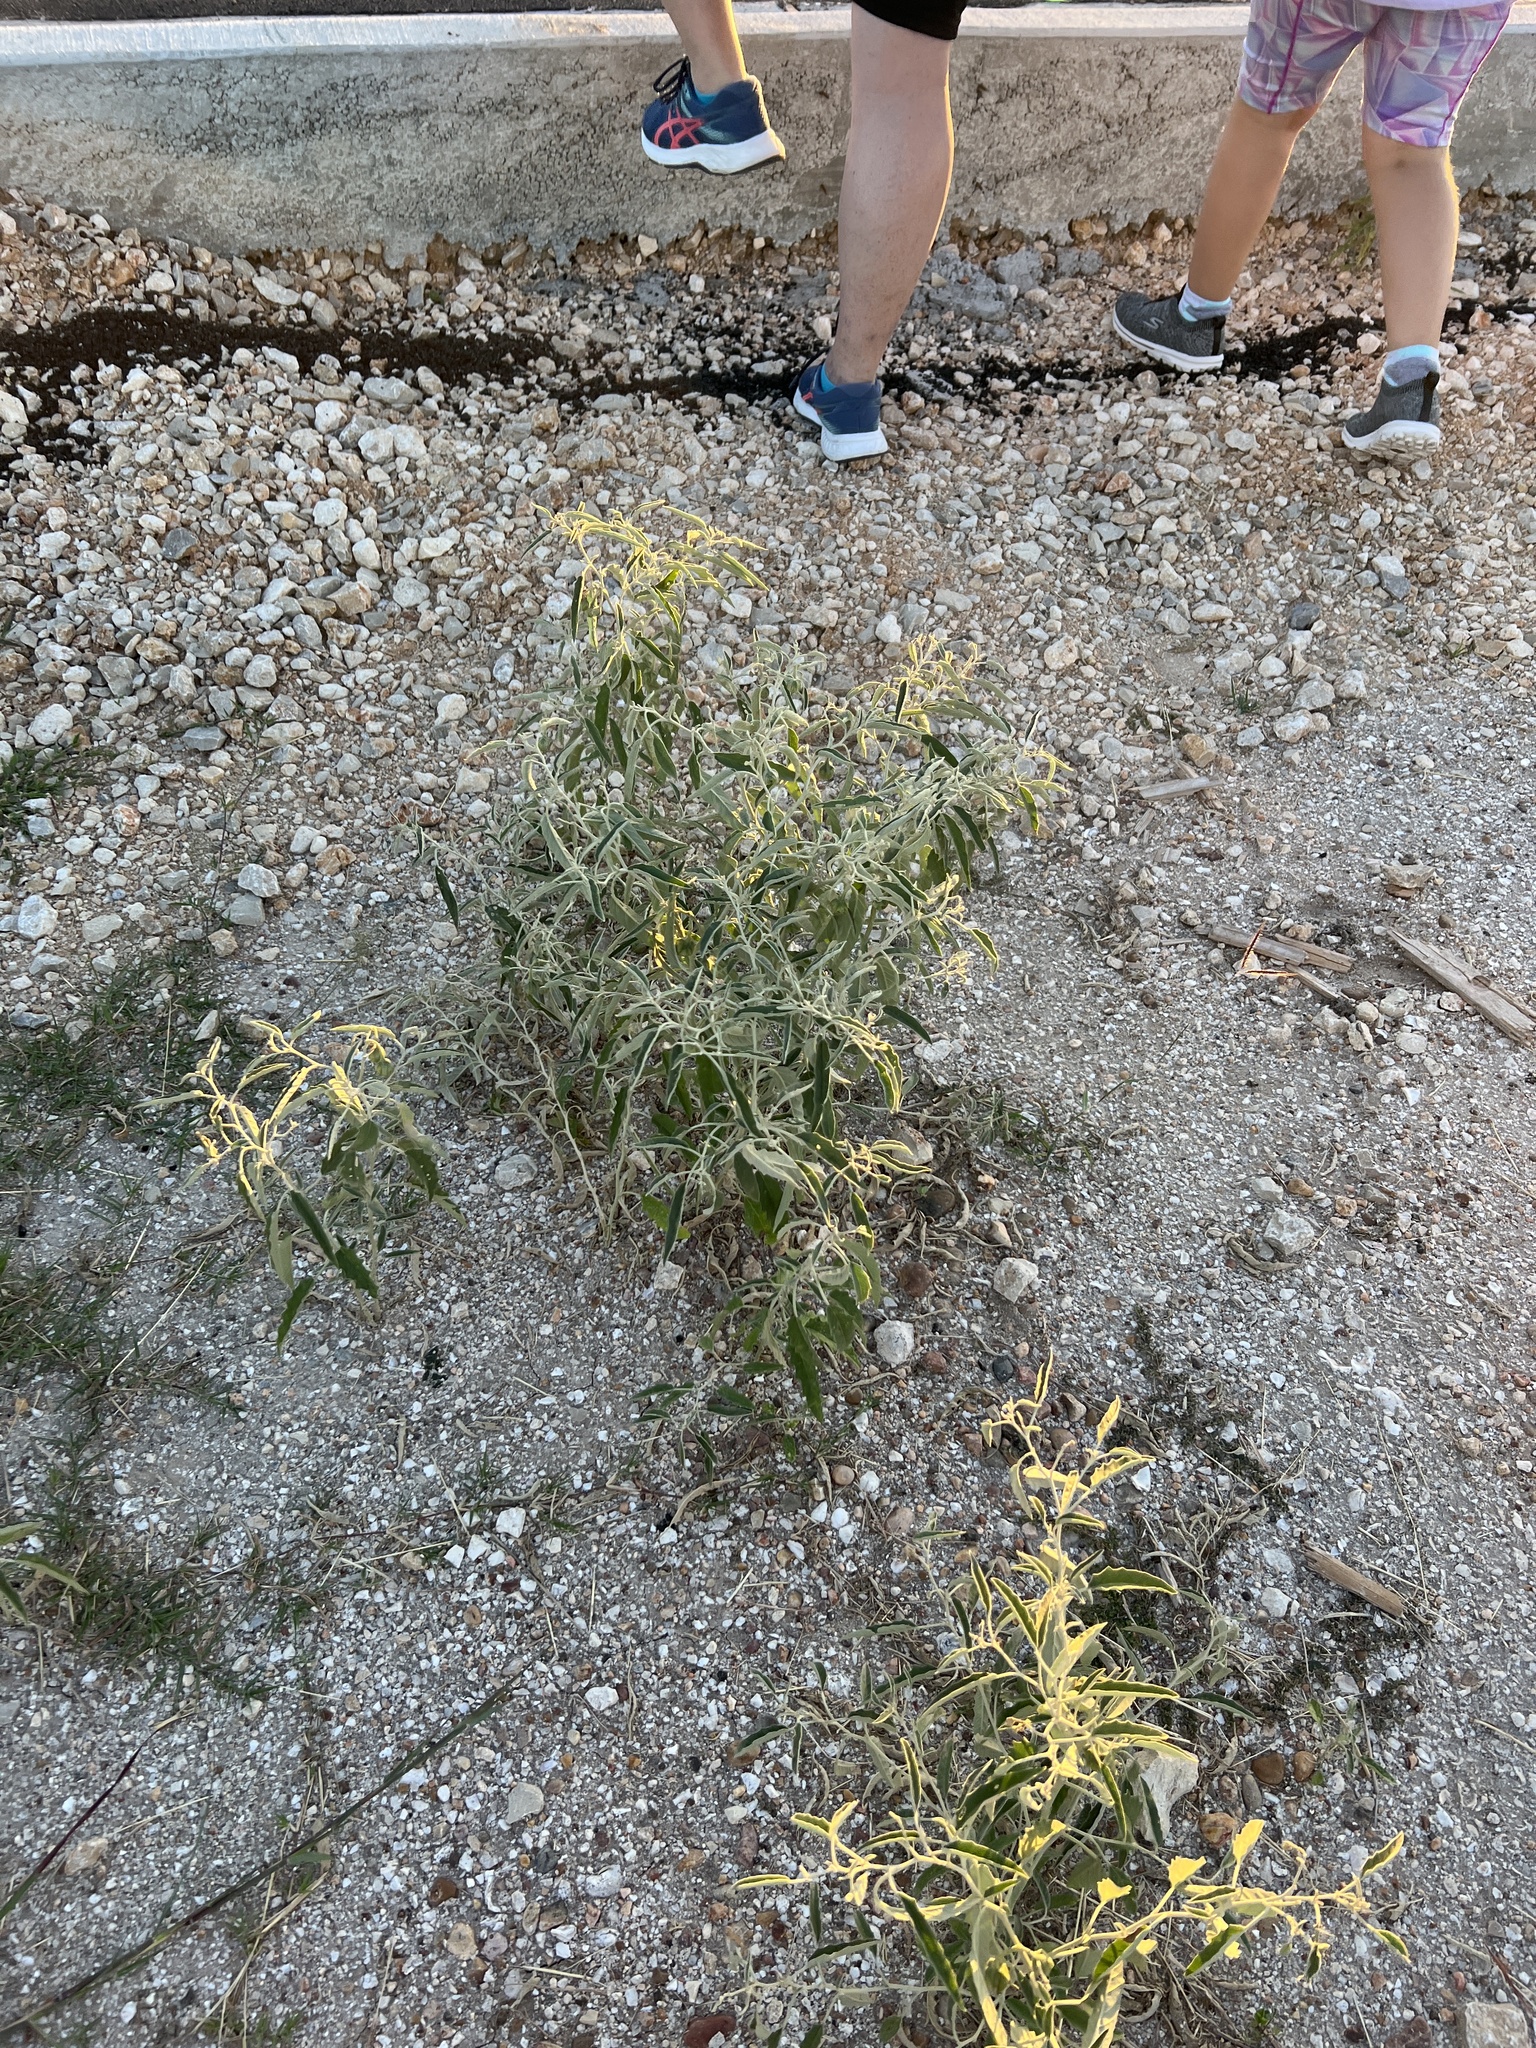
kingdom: Plantae
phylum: Tracheophyta
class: Magnoliopsida
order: Solanales
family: Solanaceae
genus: Solanum
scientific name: Solanum elaeagnifolium
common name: Silverleaf nightshade
